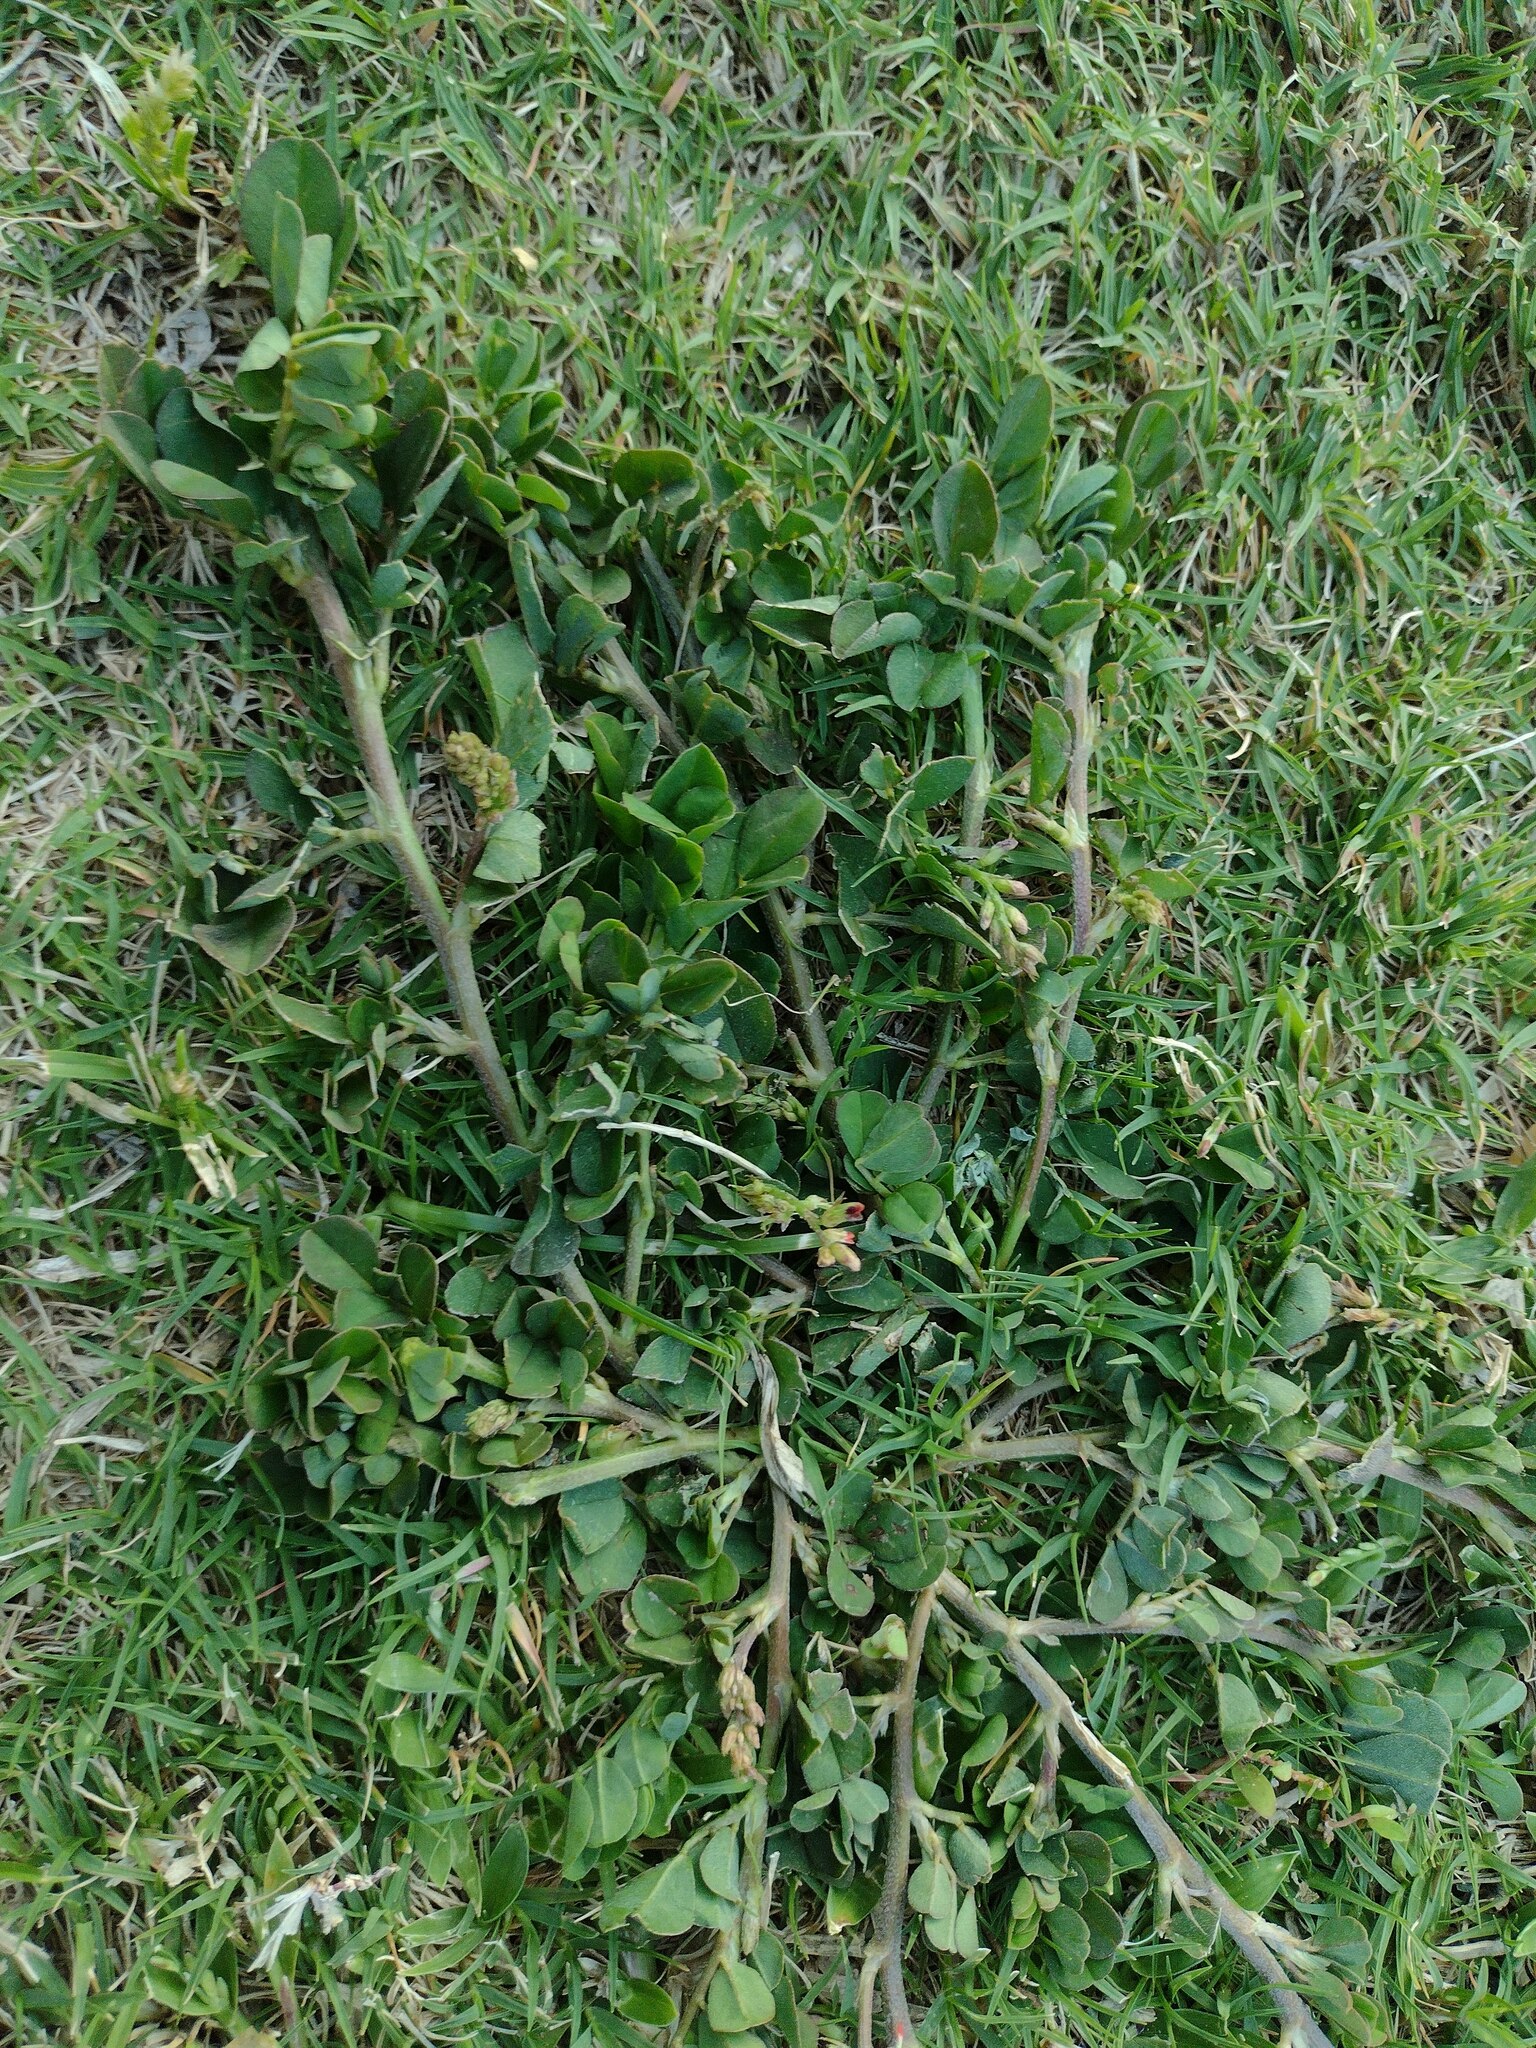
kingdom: Plantae
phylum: Tracheophyta
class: Magnoliopsida
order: Fabales
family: Fabaceae
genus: Indigofera
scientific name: Indigofera spicata
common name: Creeping indigo
